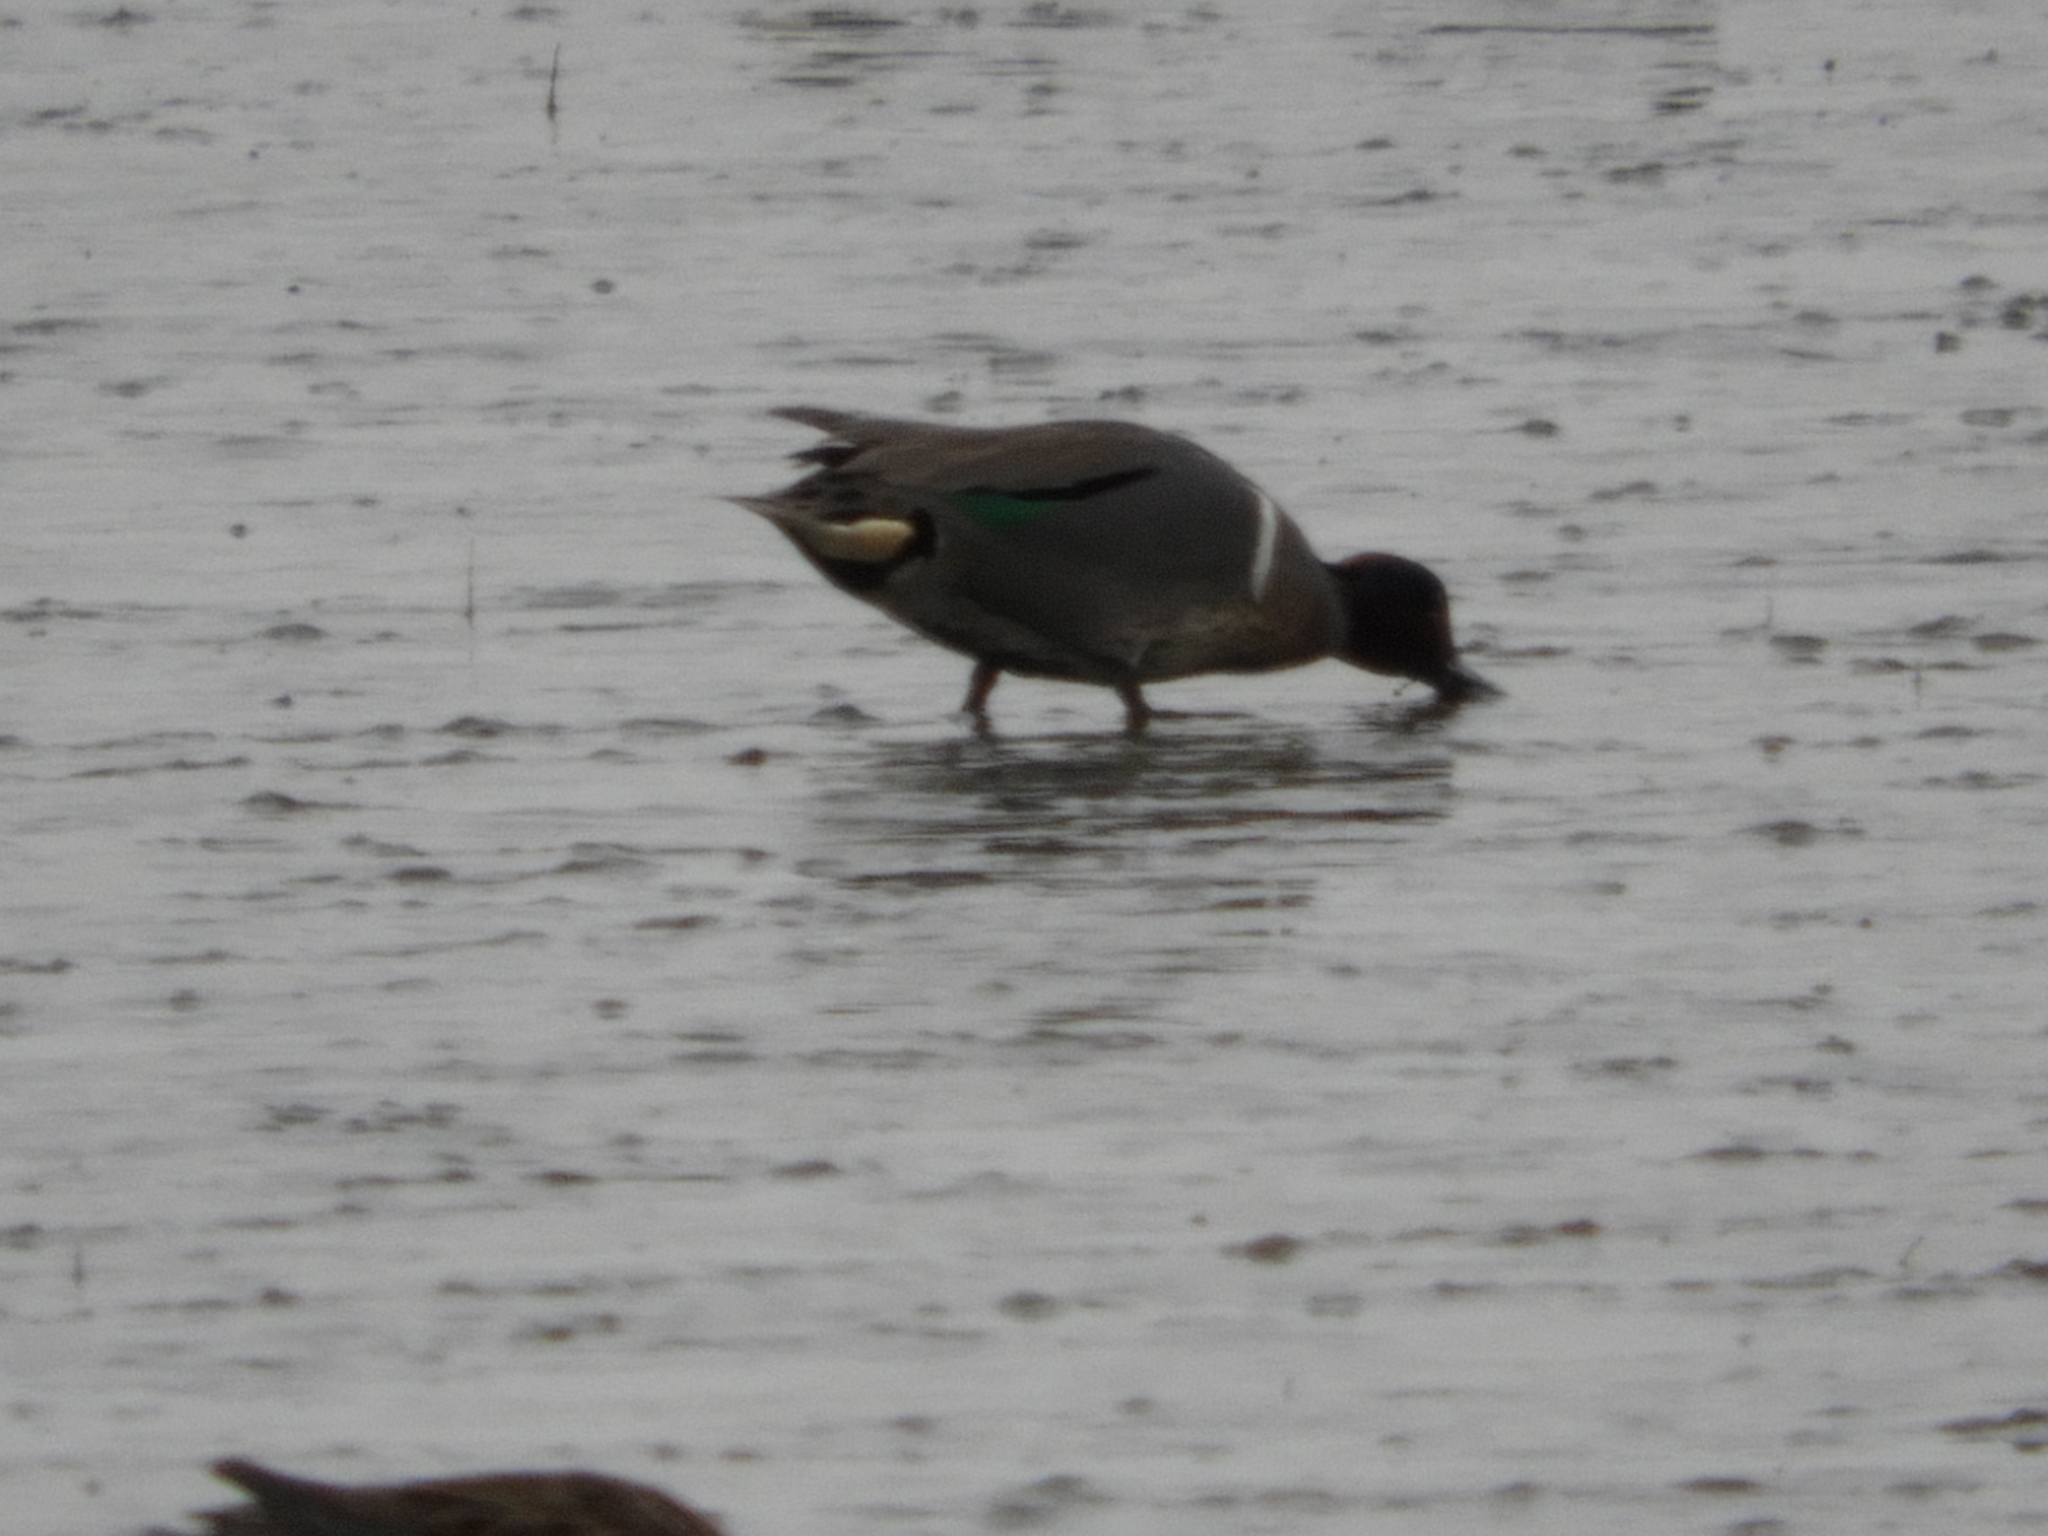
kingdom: Animalia
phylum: Chordata
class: Aves
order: Anseriformes
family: Anatidae
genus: Anas
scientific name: Anas crecca
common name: Eurasian teal
